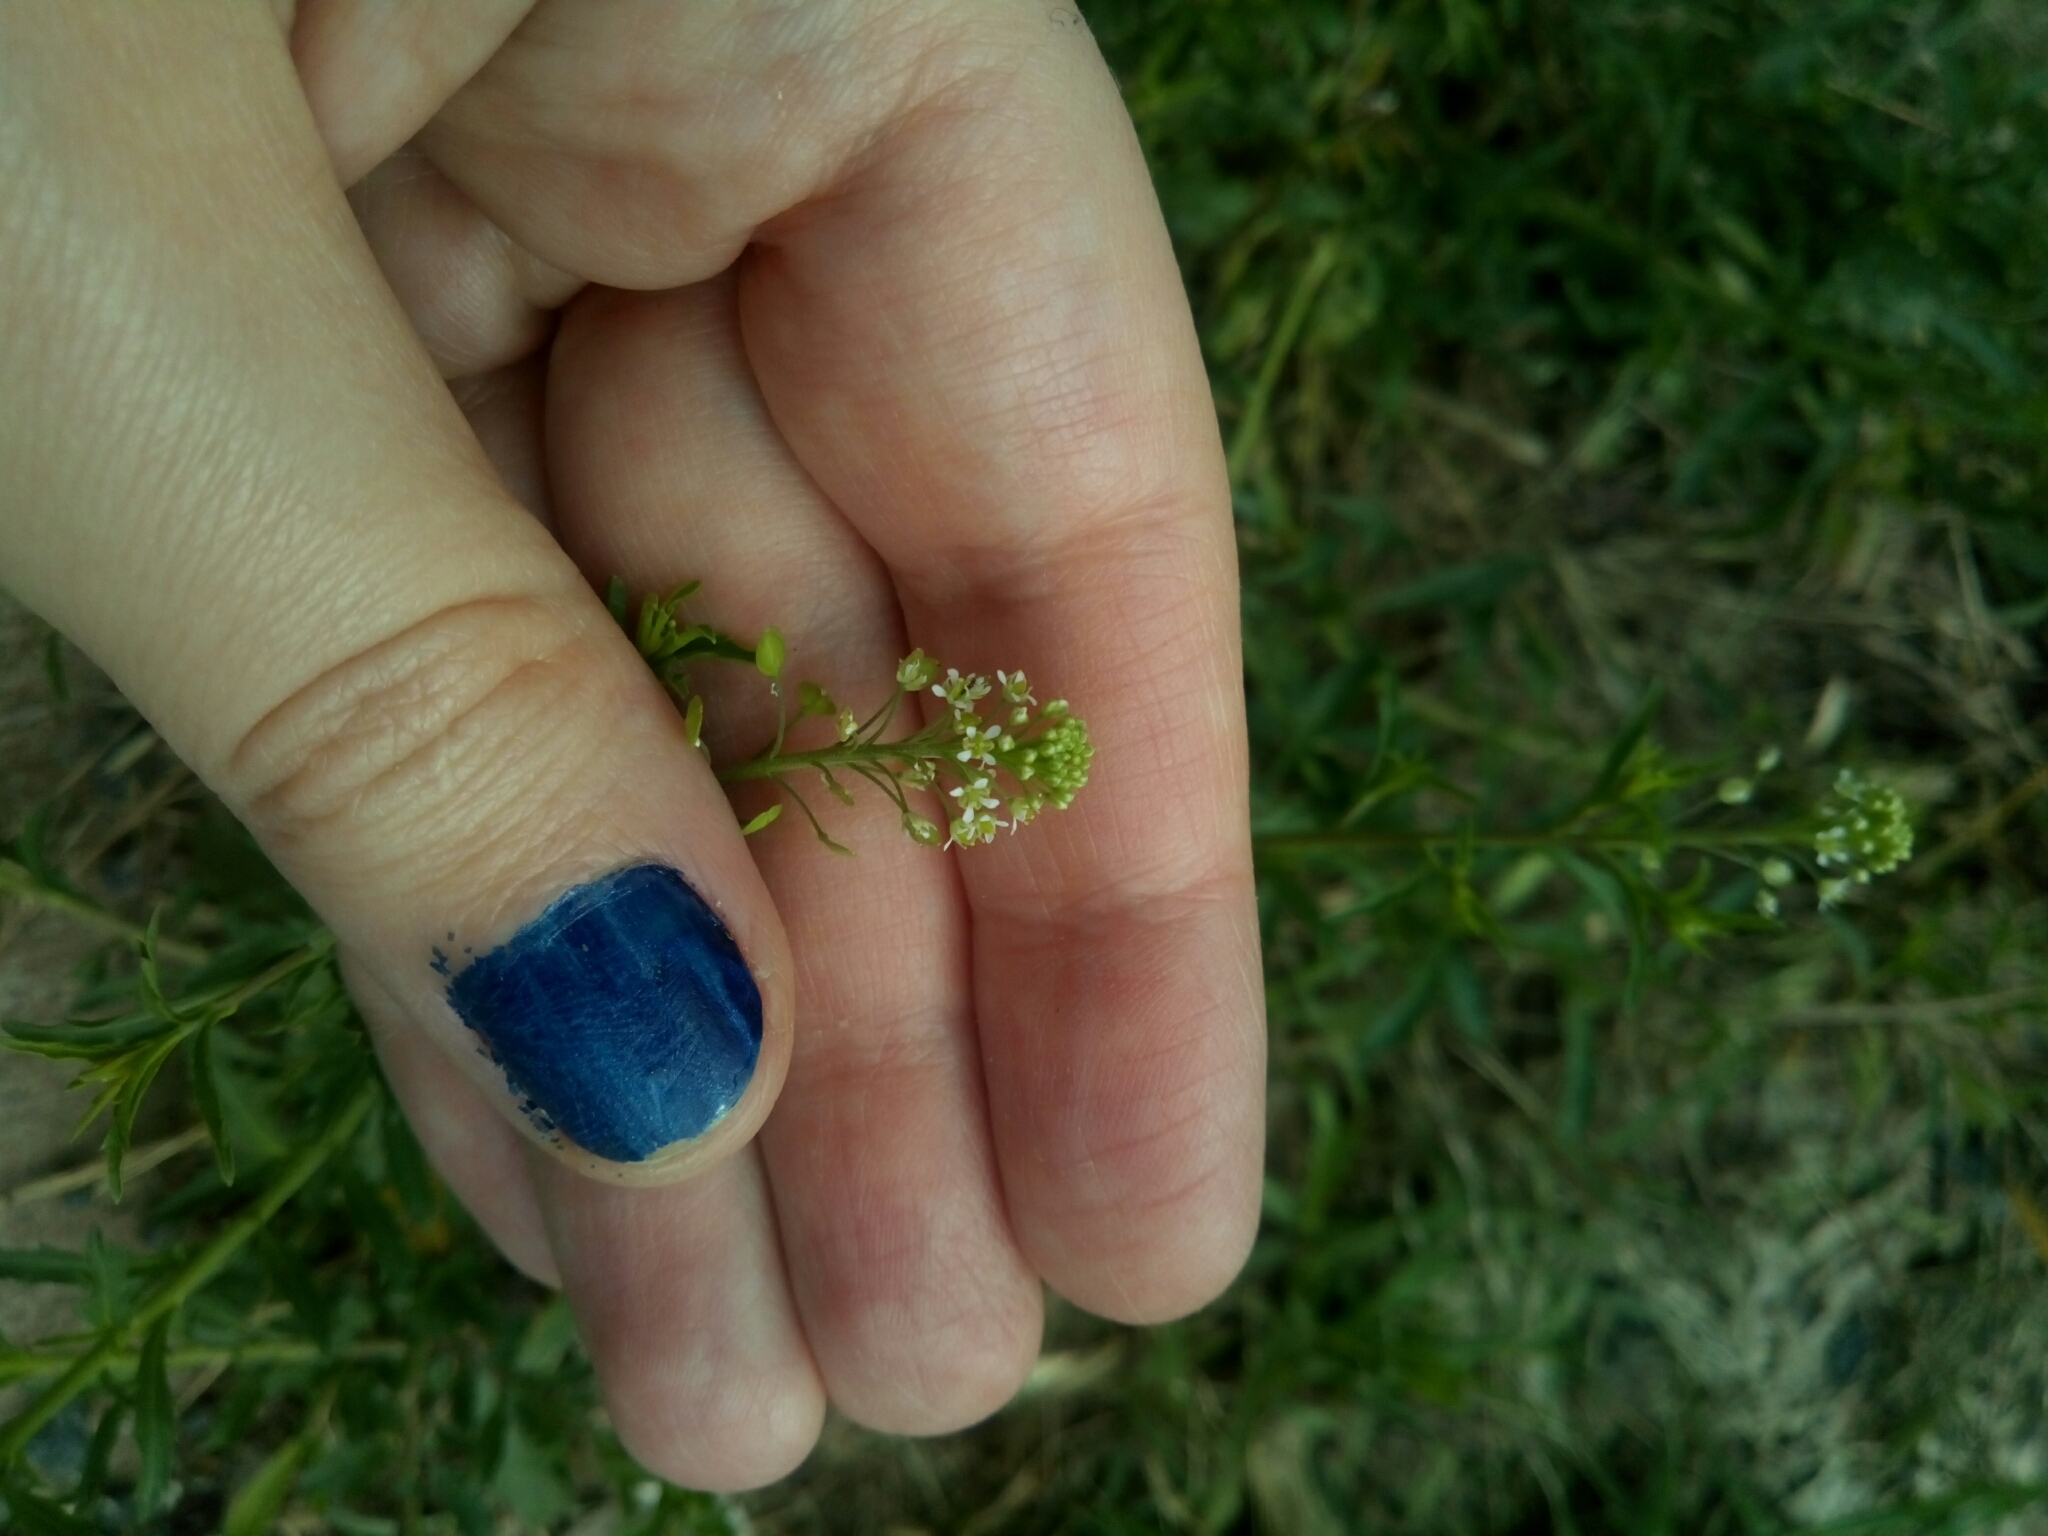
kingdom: Plantae
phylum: Tracheophyta
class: Magnoliopsida
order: Brassicales
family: Brassicaceae
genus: Lepidium
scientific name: Lepidium virginicum
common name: Least pepperwort
